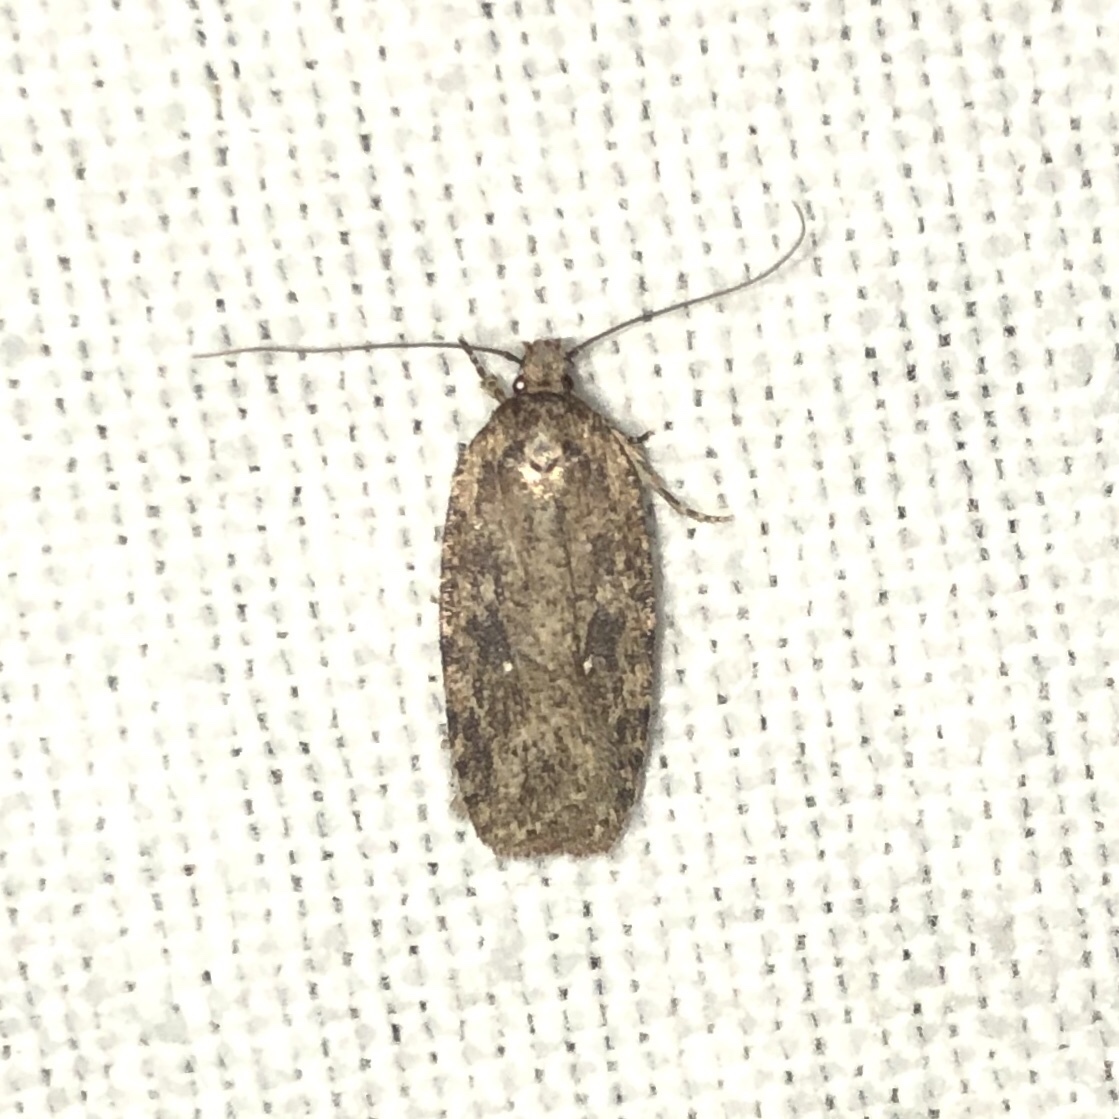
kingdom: Animalia
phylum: Arthropoda
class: Insecta
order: Lepidoptera
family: Depressariidae
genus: Agonopterix
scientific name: Agonopterix pulvipennella
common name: Goldenrod leafffolder
